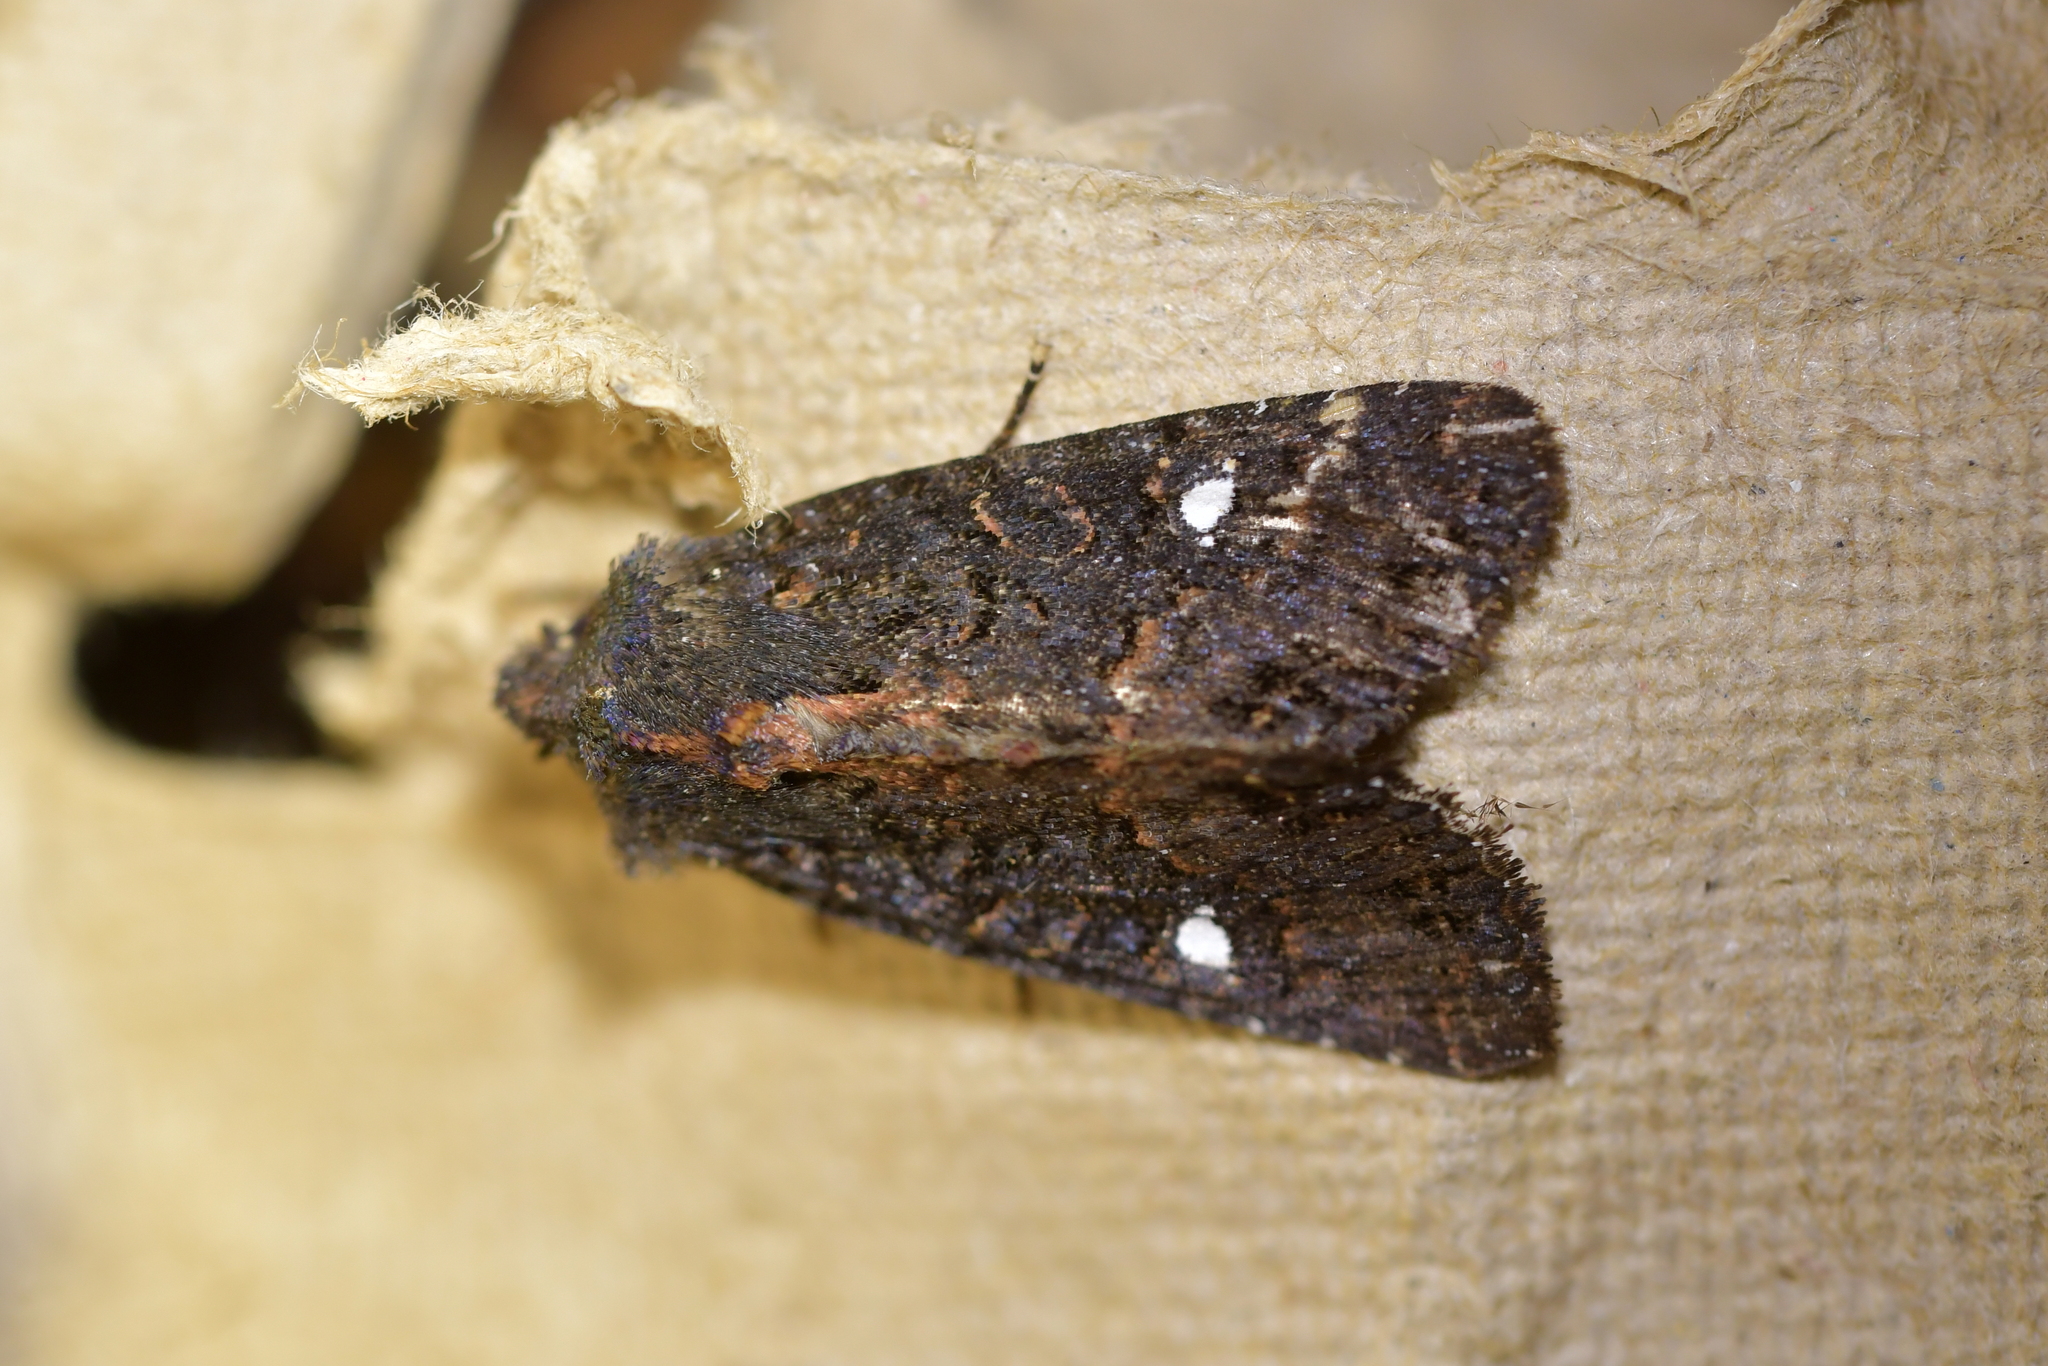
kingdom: Animalia
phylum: Arthropoda
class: Insecta
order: Lepidoptera
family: Noctuidae
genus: Meterana
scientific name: Meterana vitiosa
